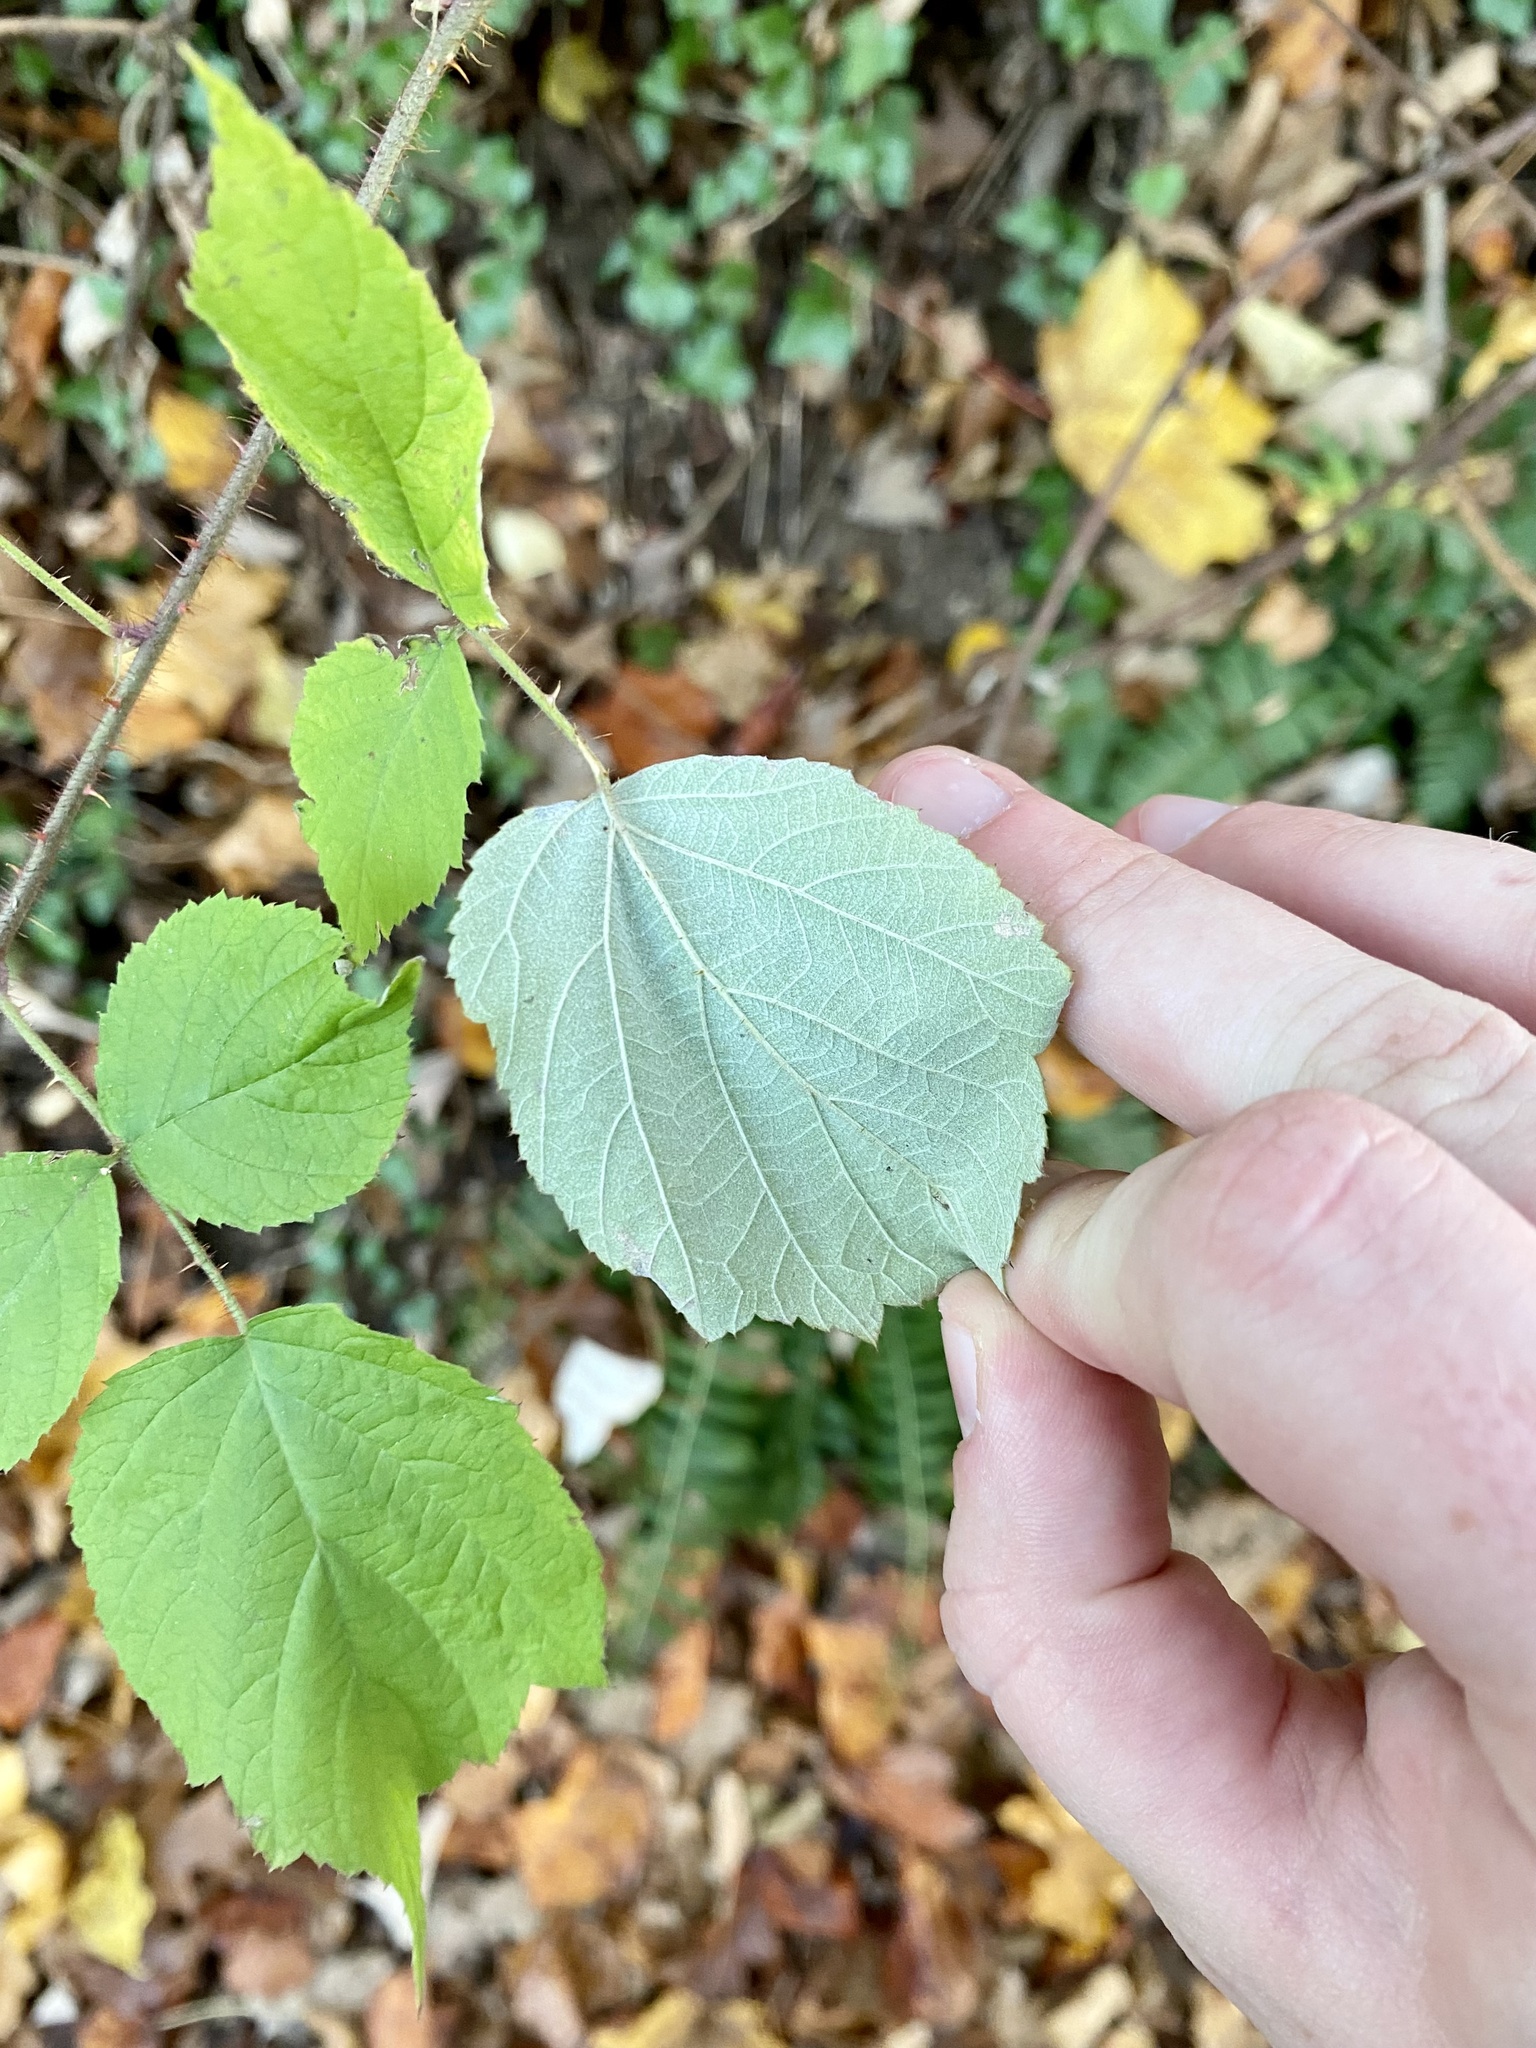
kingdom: Plantae
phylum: Tracheophyta
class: Magnoliopsida
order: Rosales
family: Rosaceae
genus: Rubus
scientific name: Rubus phoenicolasius
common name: Japanese wineberry
